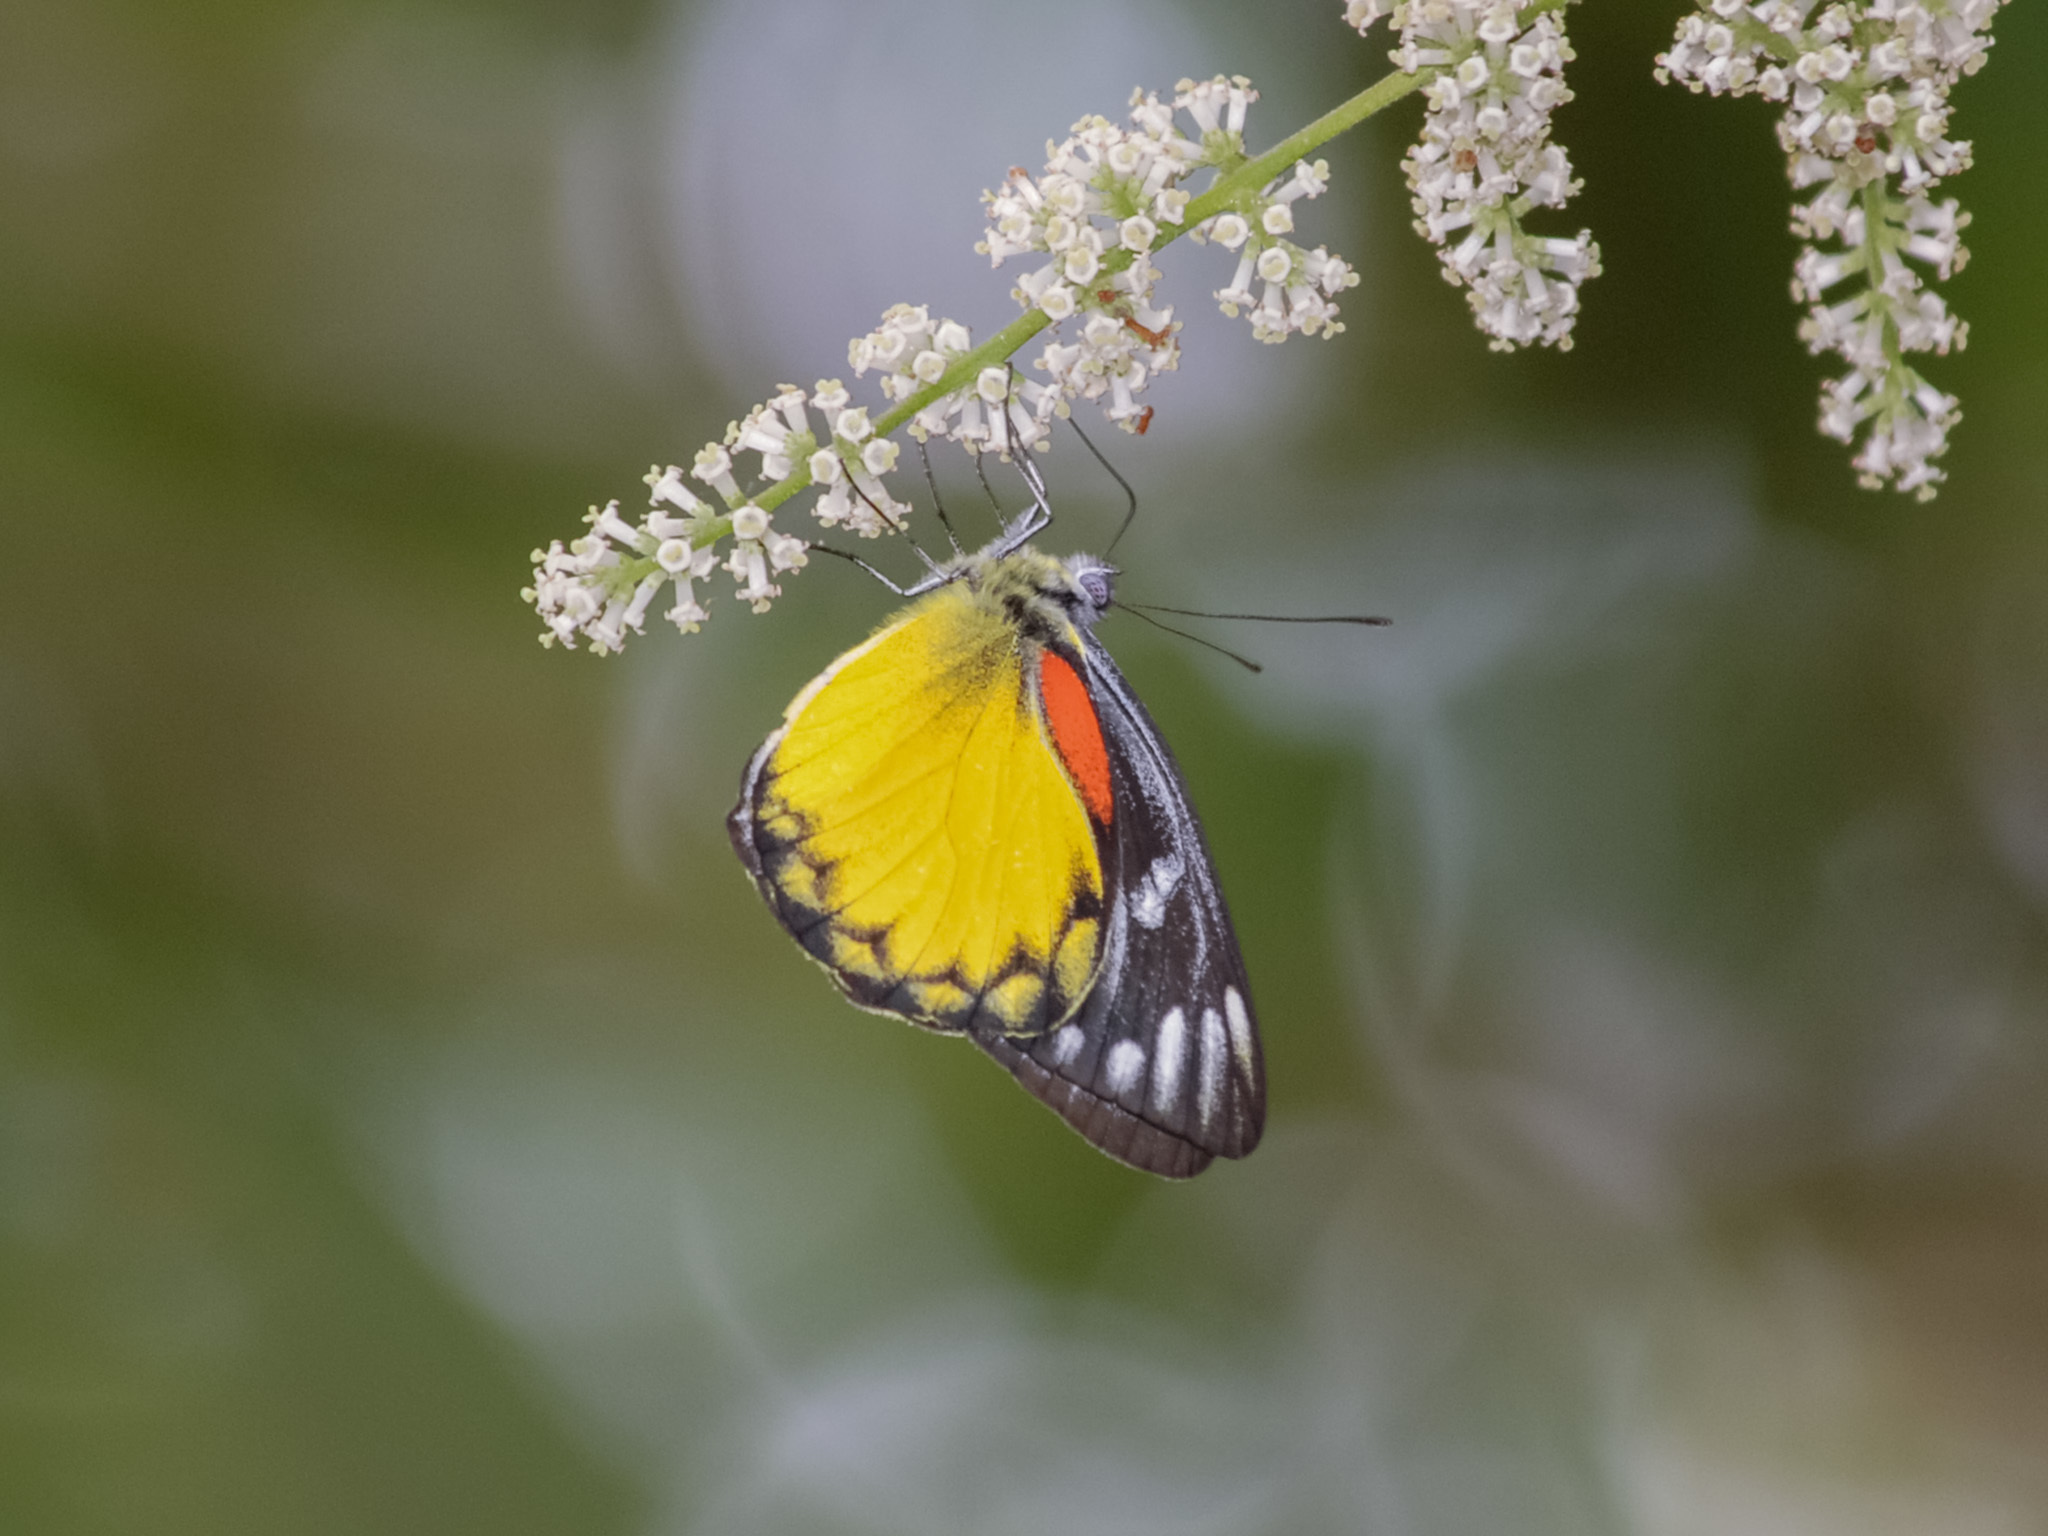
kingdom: Animalia
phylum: Arthropoda
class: Insecta
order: Lepidoptera
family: Pieridae
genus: Delias
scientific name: Delias descombesi
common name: Red-spot jezebel
